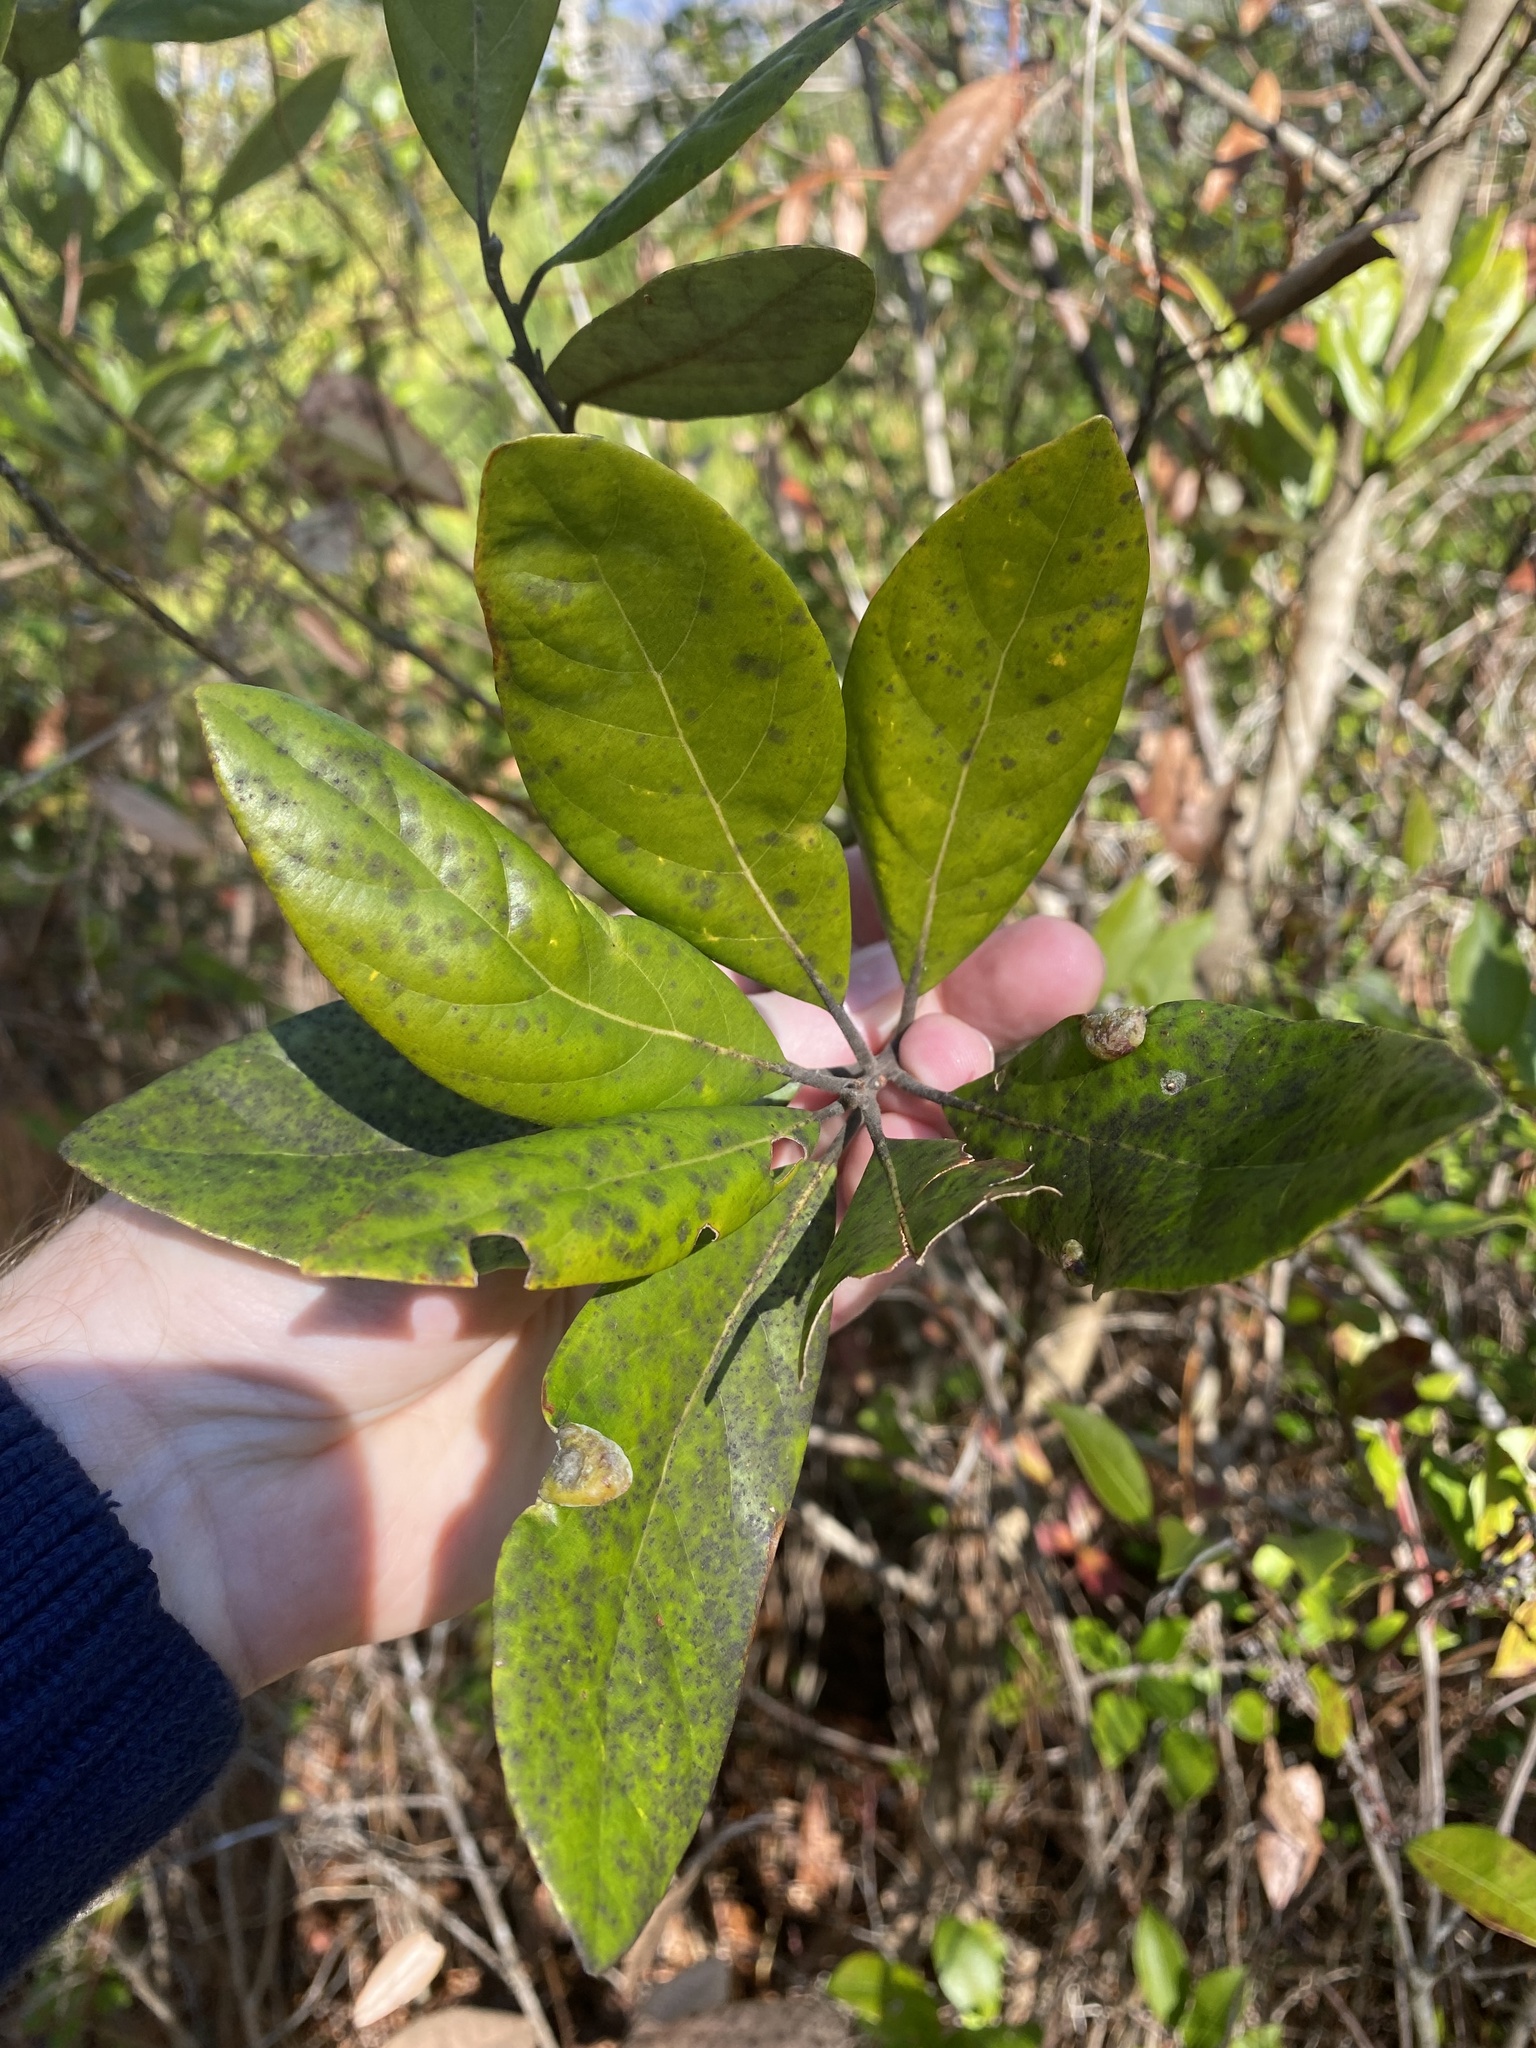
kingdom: Plantae
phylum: Tracheophyta
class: Magnoliopsida
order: Laurales
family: Lauraceae
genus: Persea
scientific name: Persea palustris
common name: Swampbay
